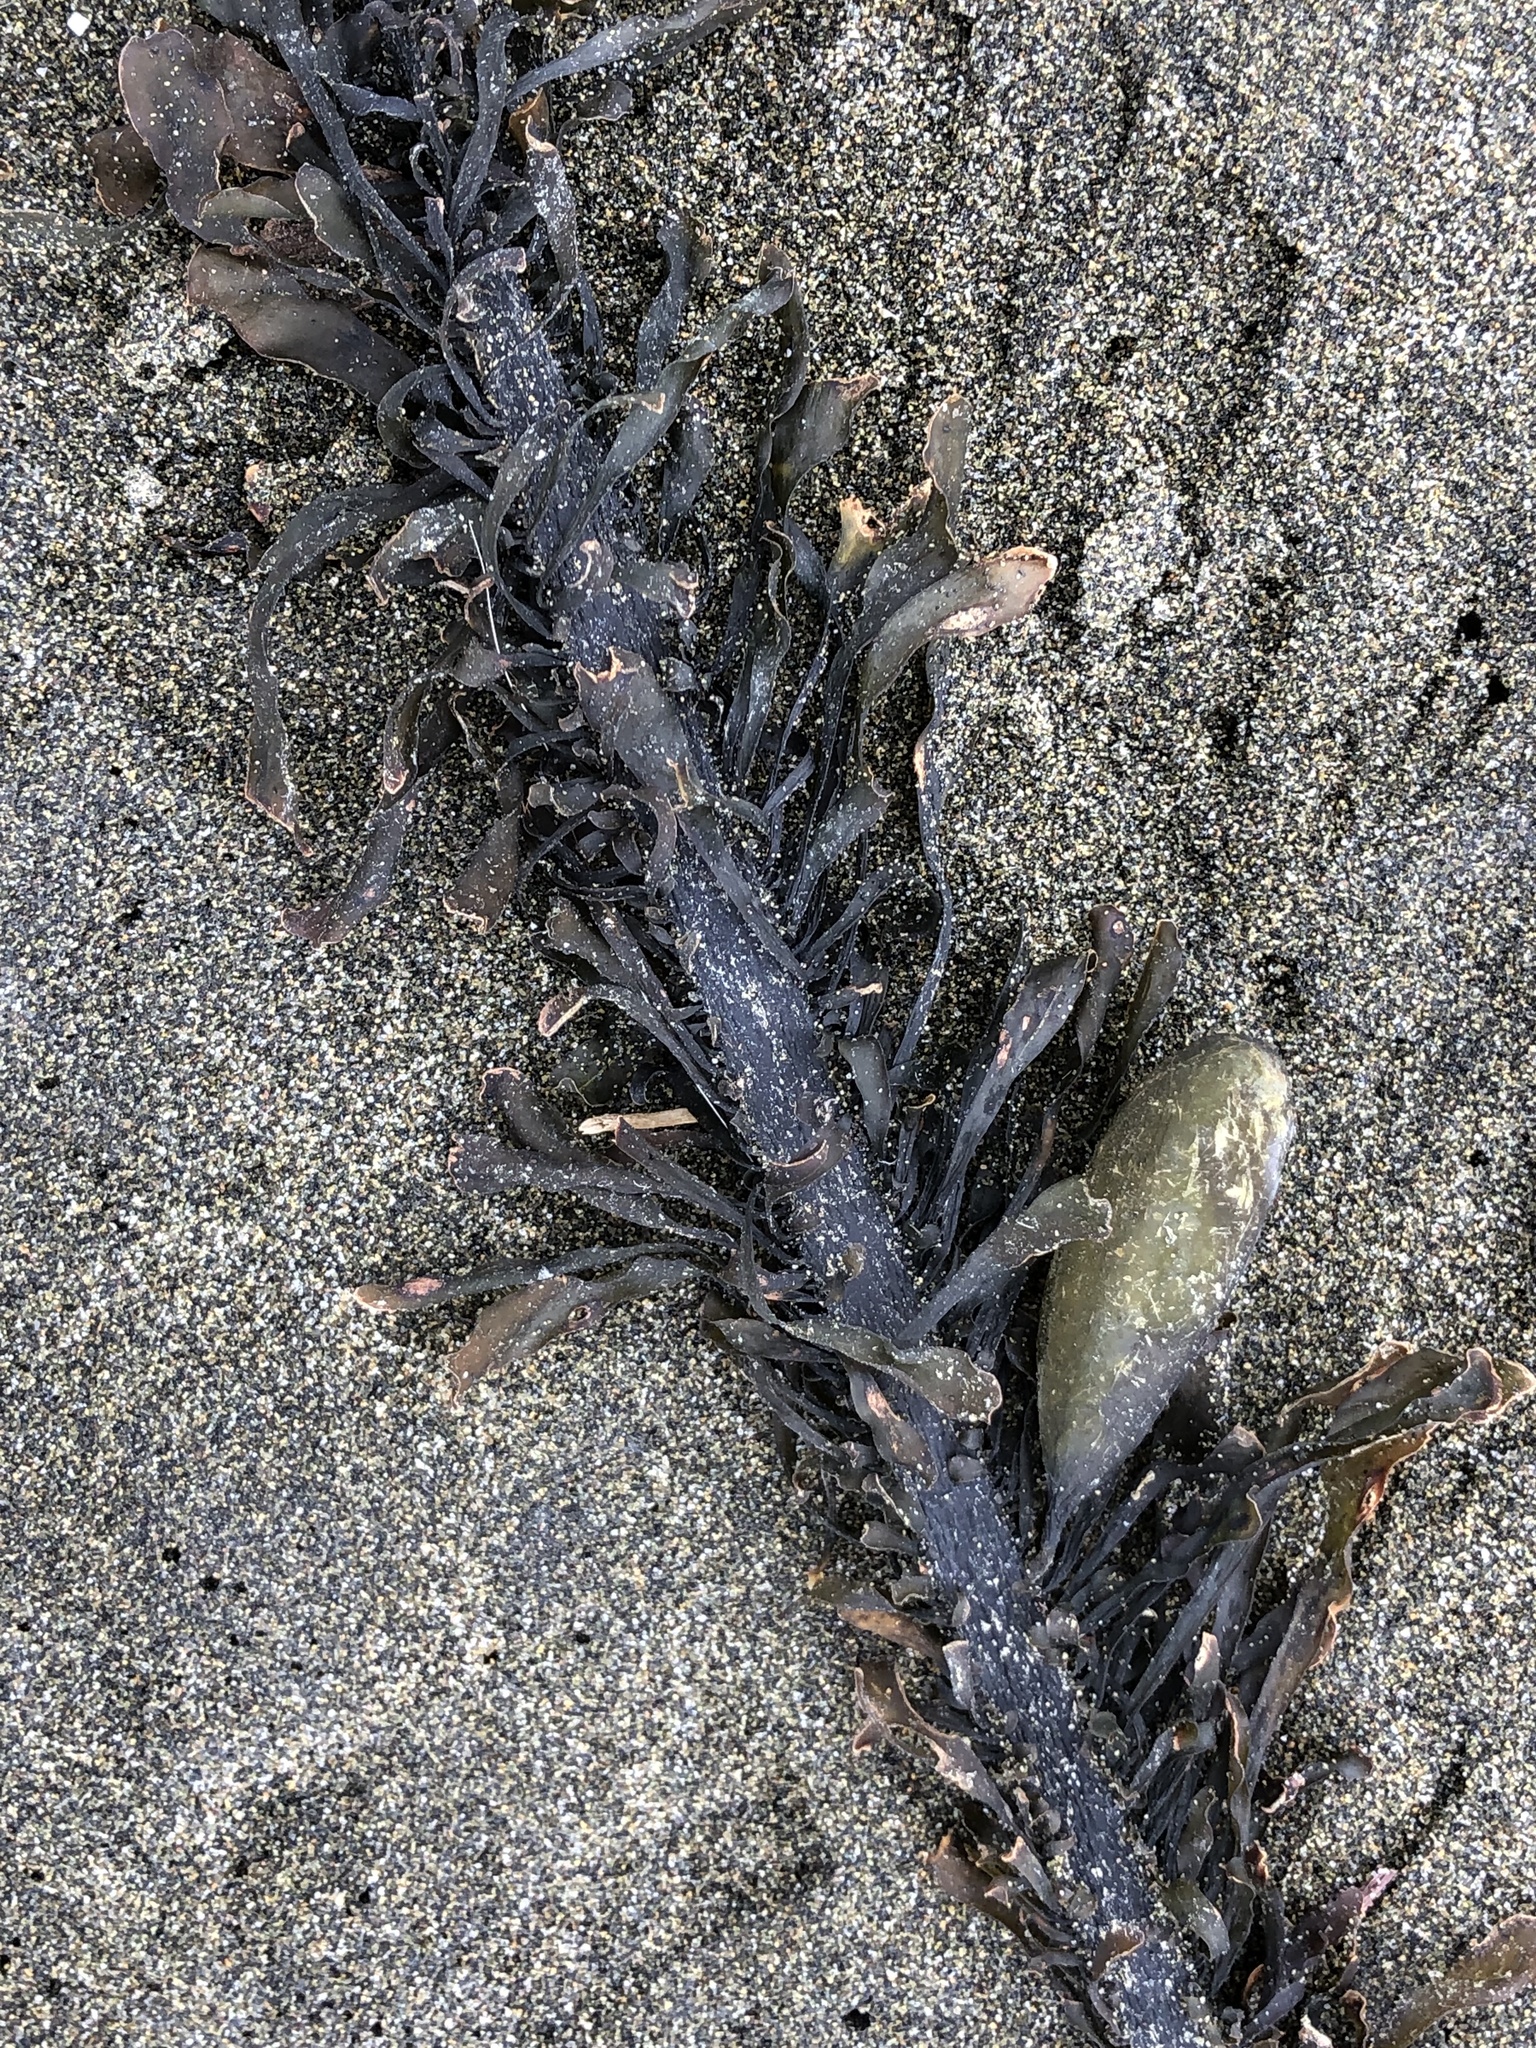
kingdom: Chromista
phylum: Ochrophyta
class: Phaeophyceae
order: Laminariales
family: Lessoniaceae
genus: Egregia
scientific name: Egregia menziesii
